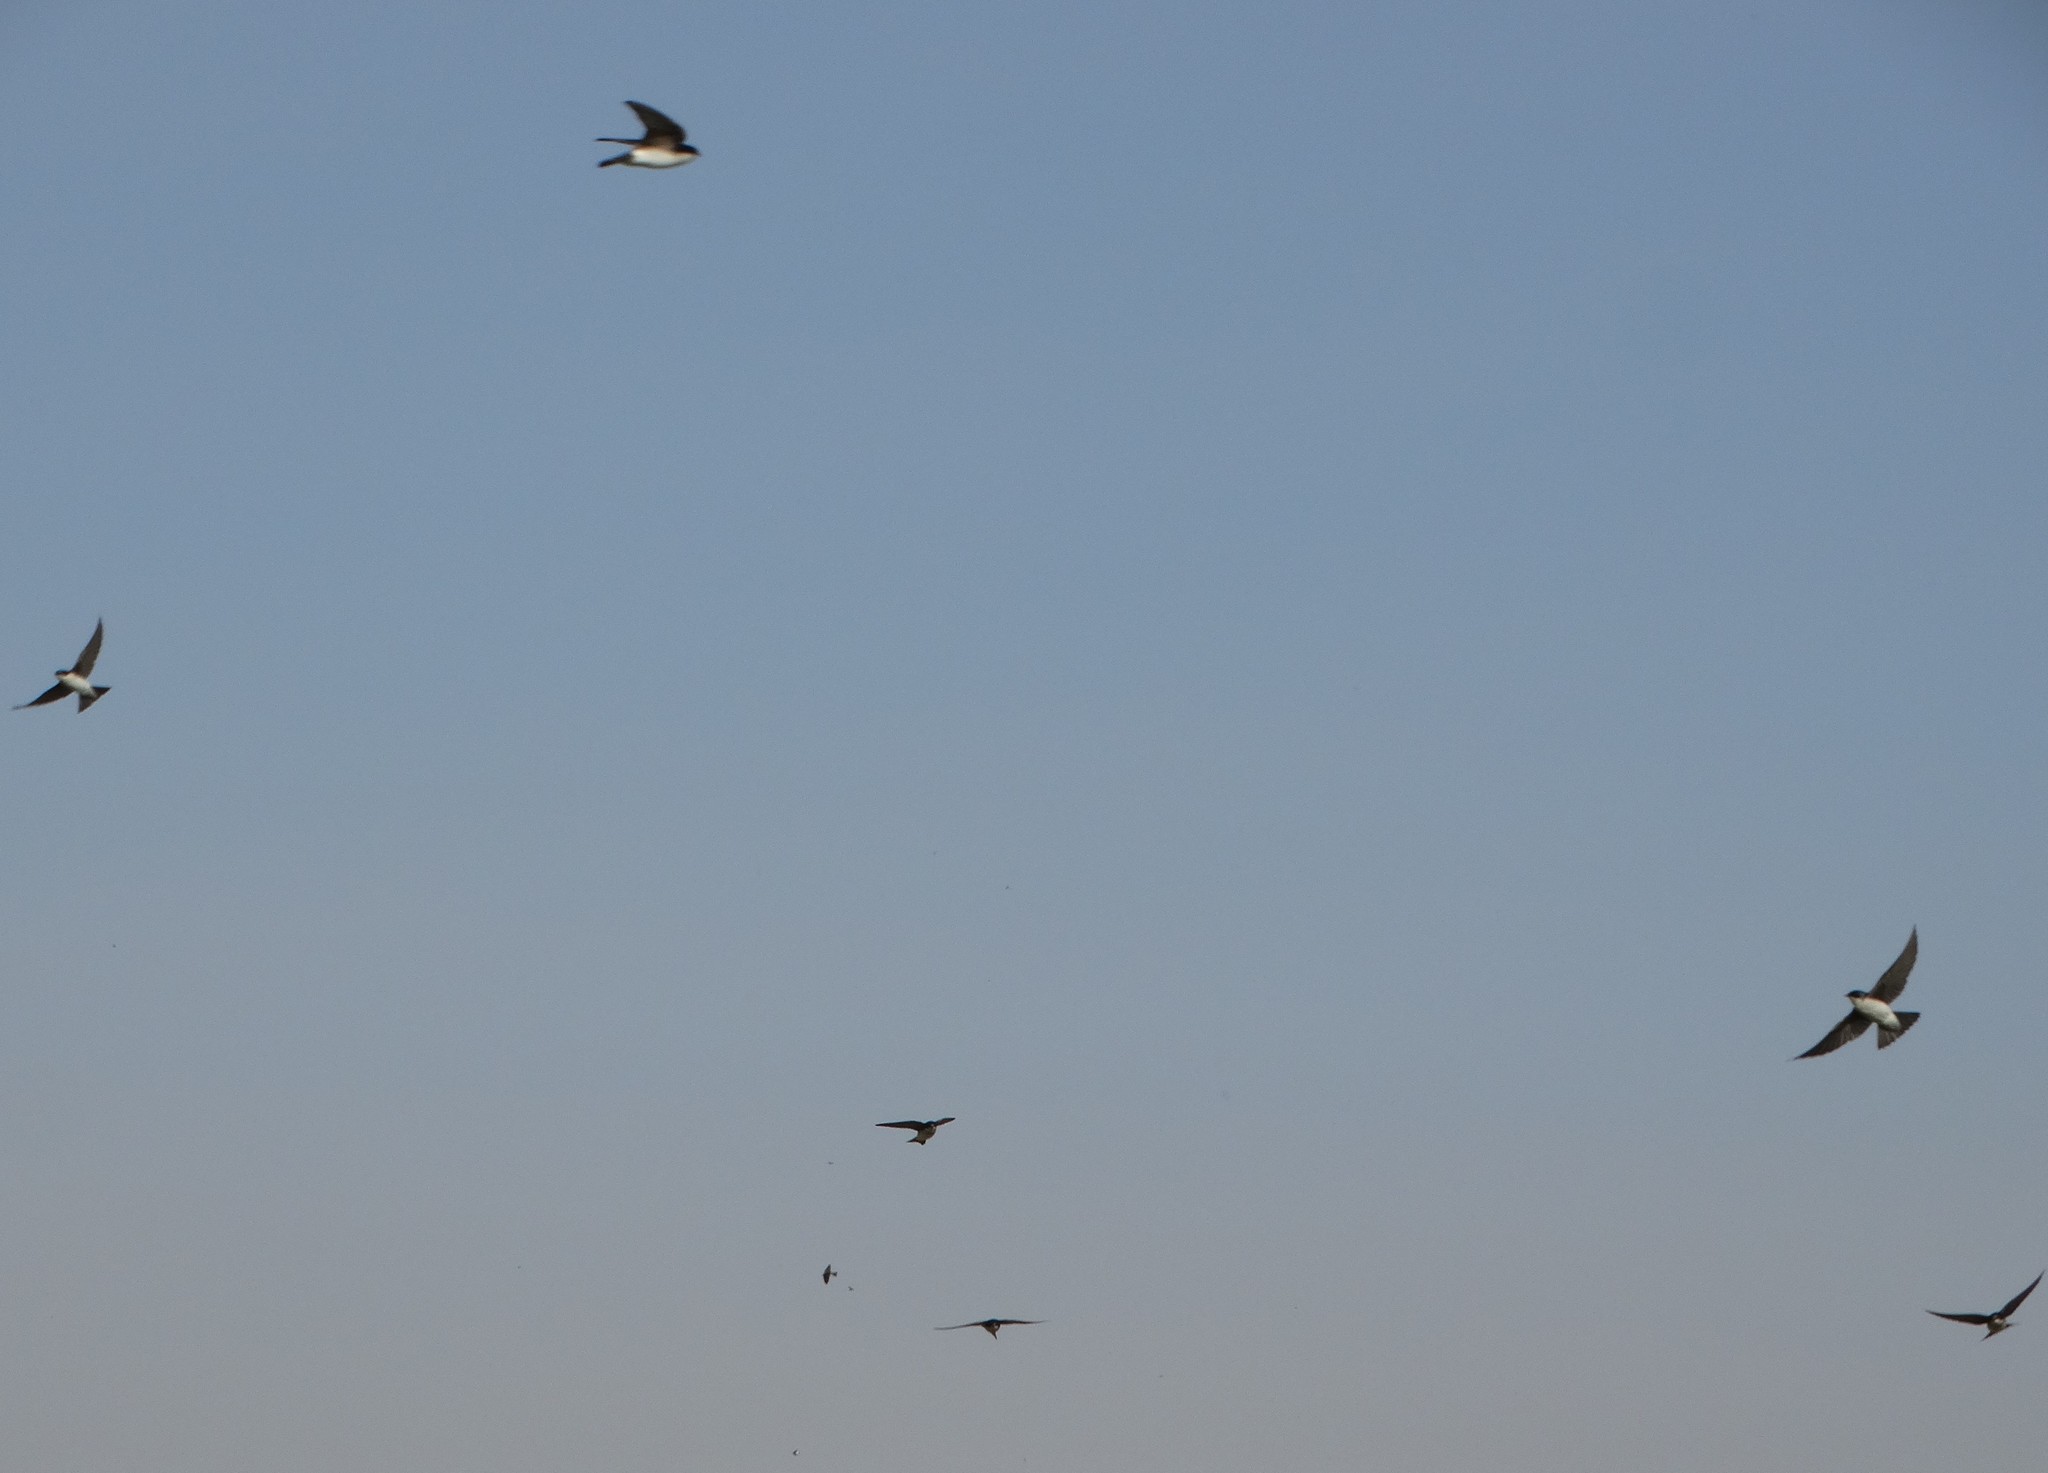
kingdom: Animalia
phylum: Chordata
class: Aves
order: Passeriformes
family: Hirundinidae
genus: Tachycineta
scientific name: Tachycineta bicolor
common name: Tree swallow
